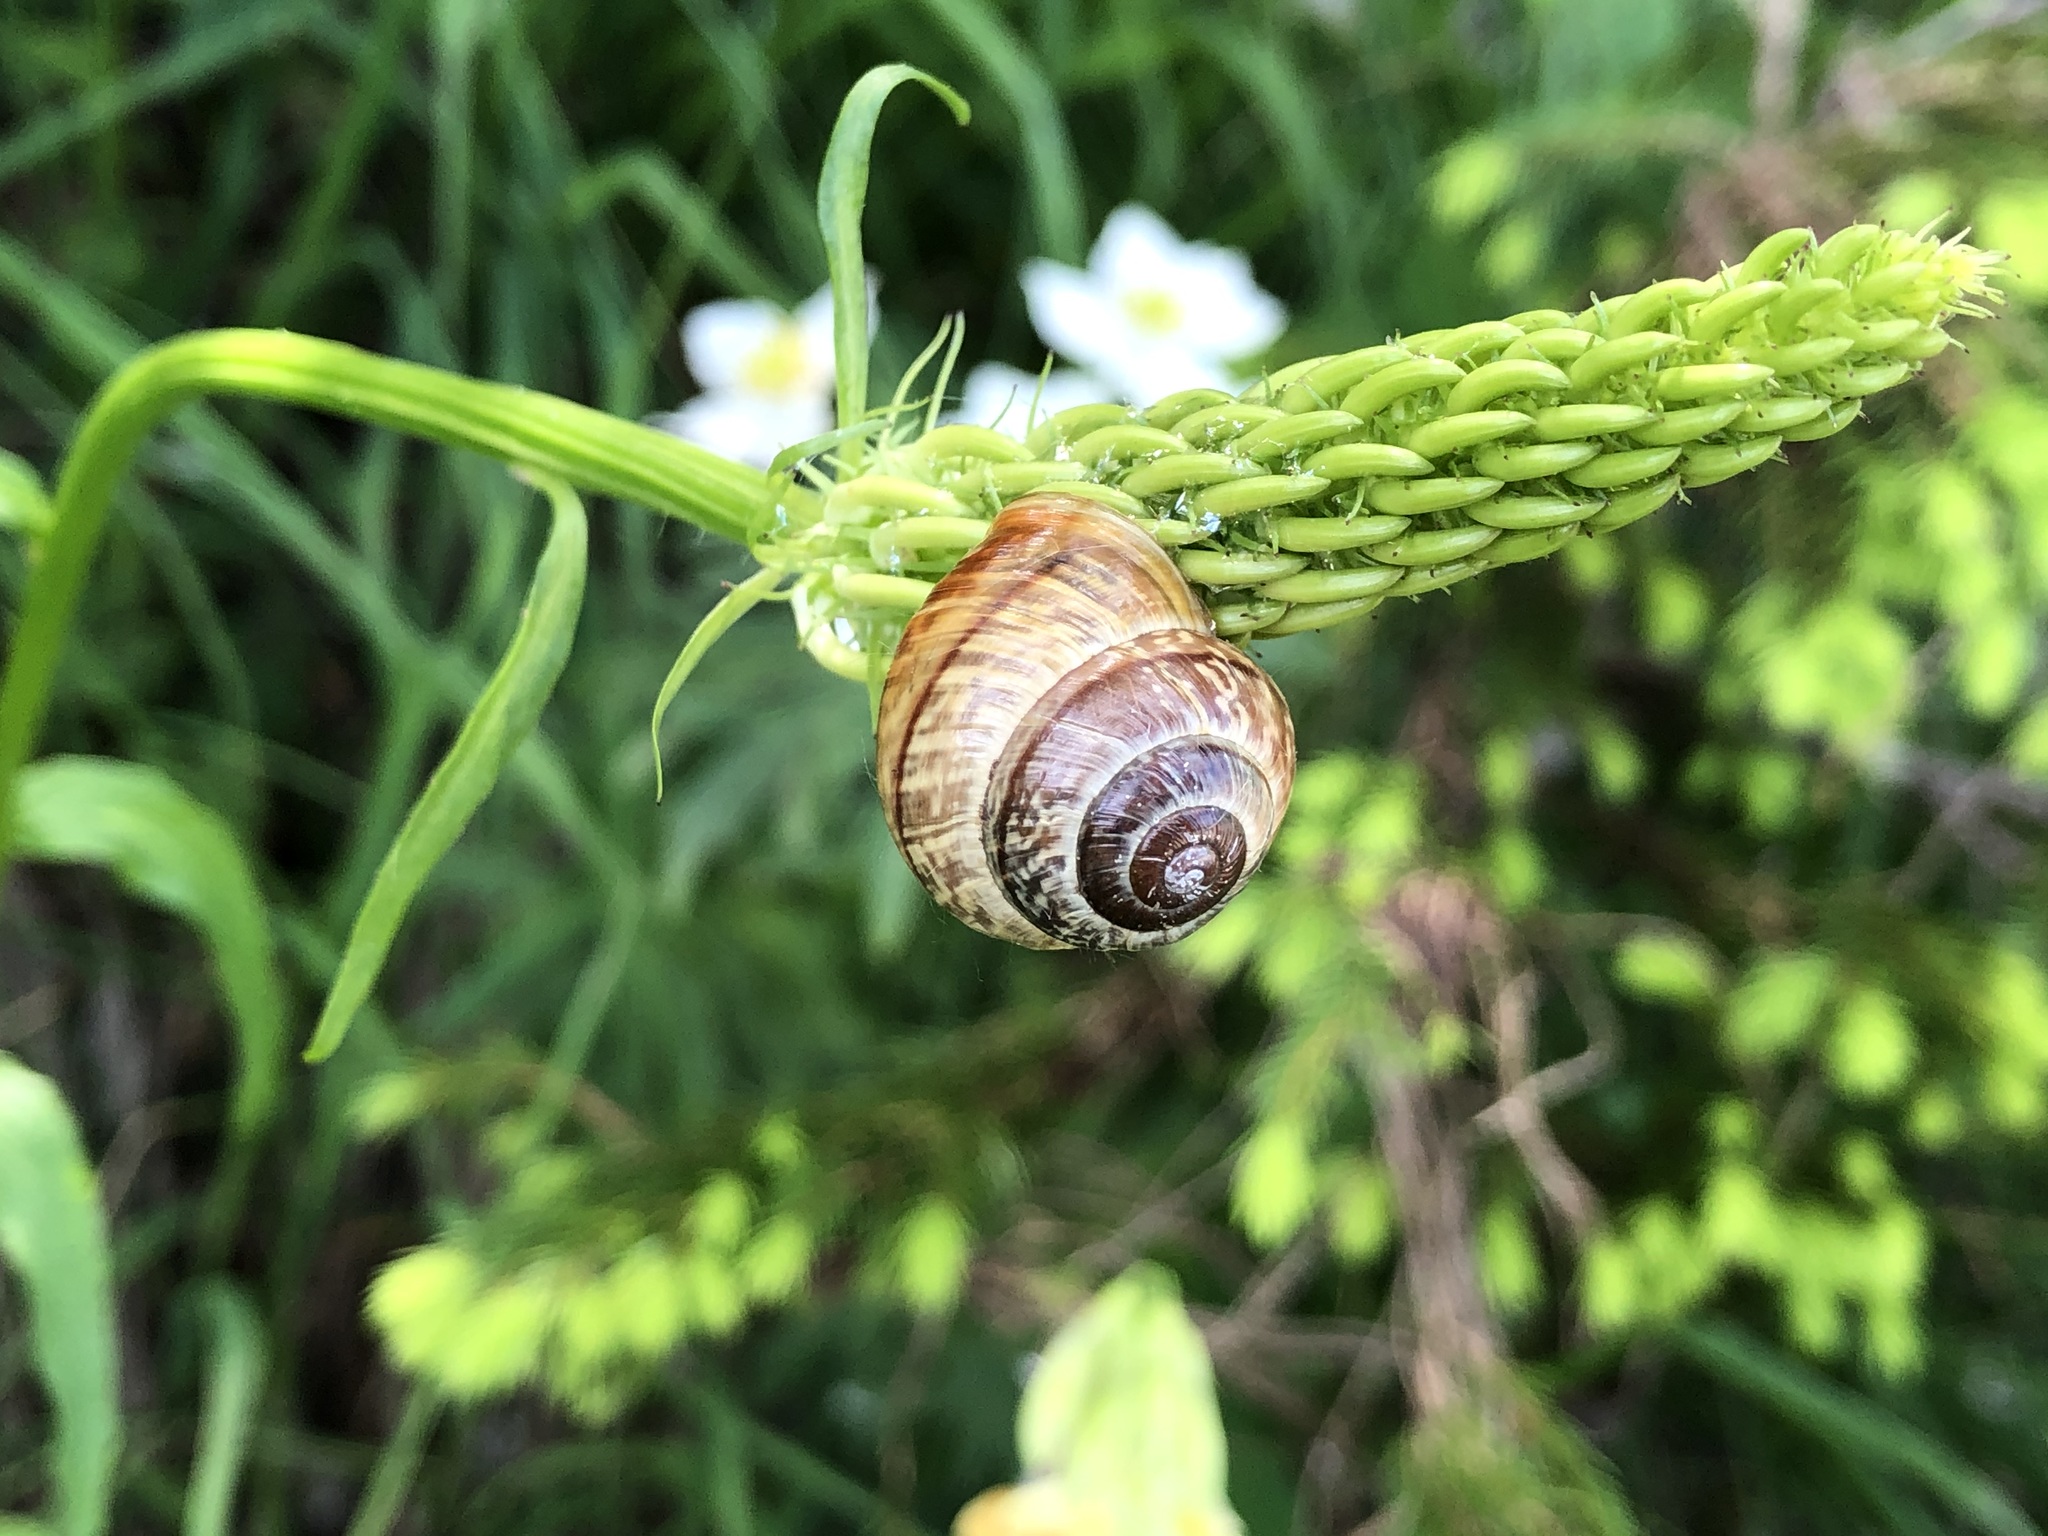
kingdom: Animalia
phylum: Mollusca
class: Gastropoda
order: Stylommatophora
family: Helicidae
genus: Arianta
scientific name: Arianta arbustorum
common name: Copse snail
